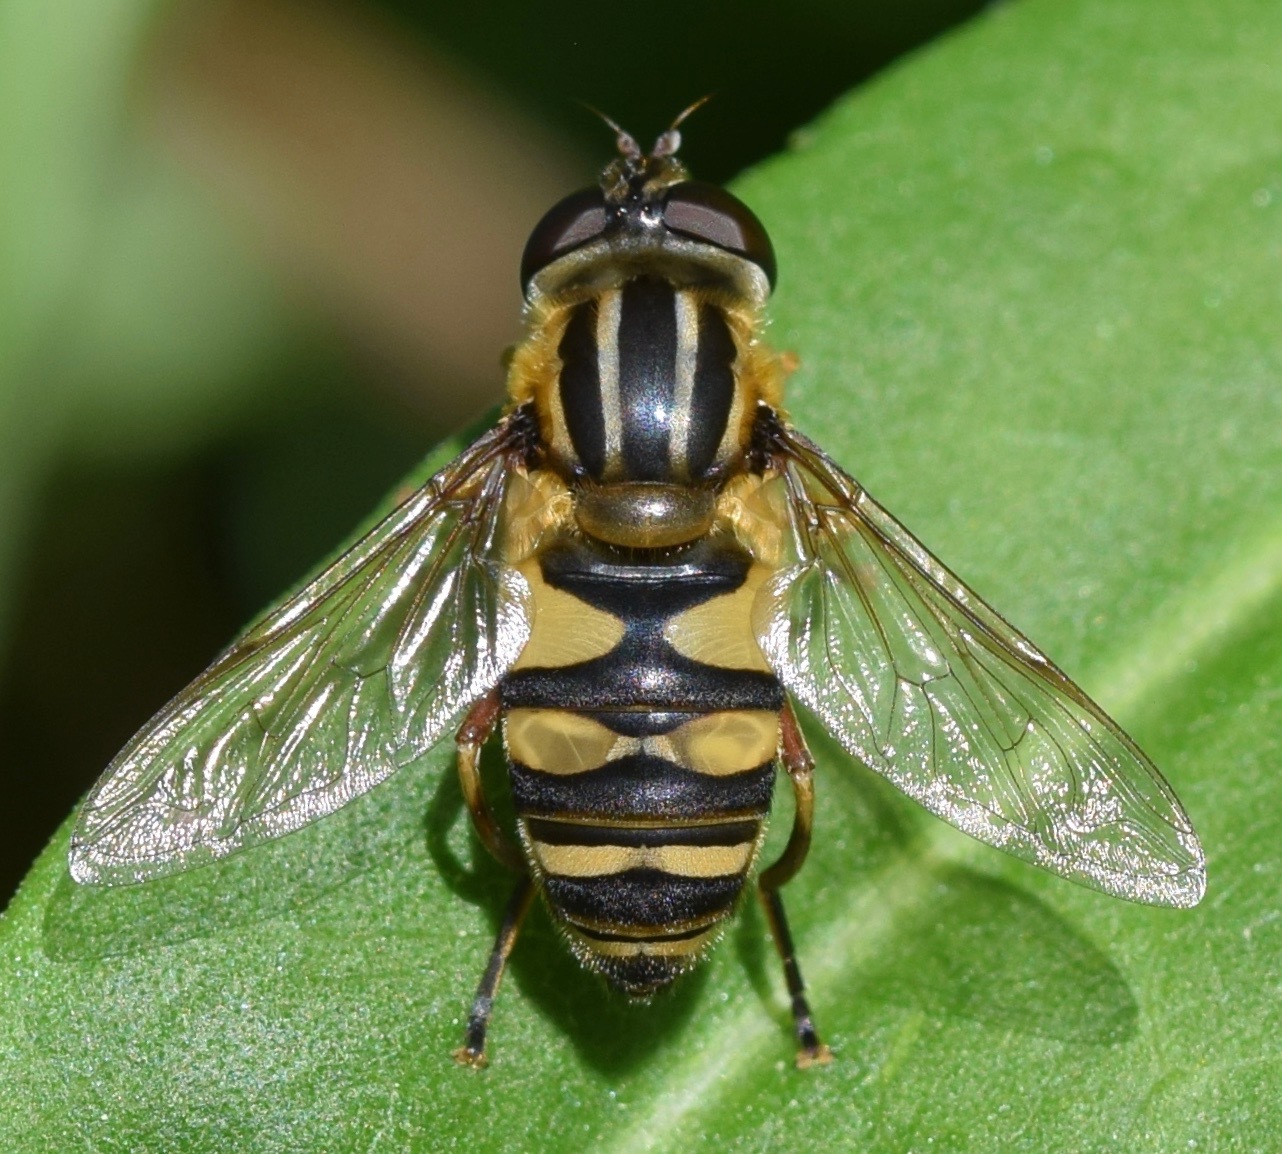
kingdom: Animalia
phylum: Arthropoda
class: Insecta
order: Diptera
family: Syrphidae
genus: Helophilus
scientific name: Helophilus fasciatus
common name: Narrow-headed marsh fly
